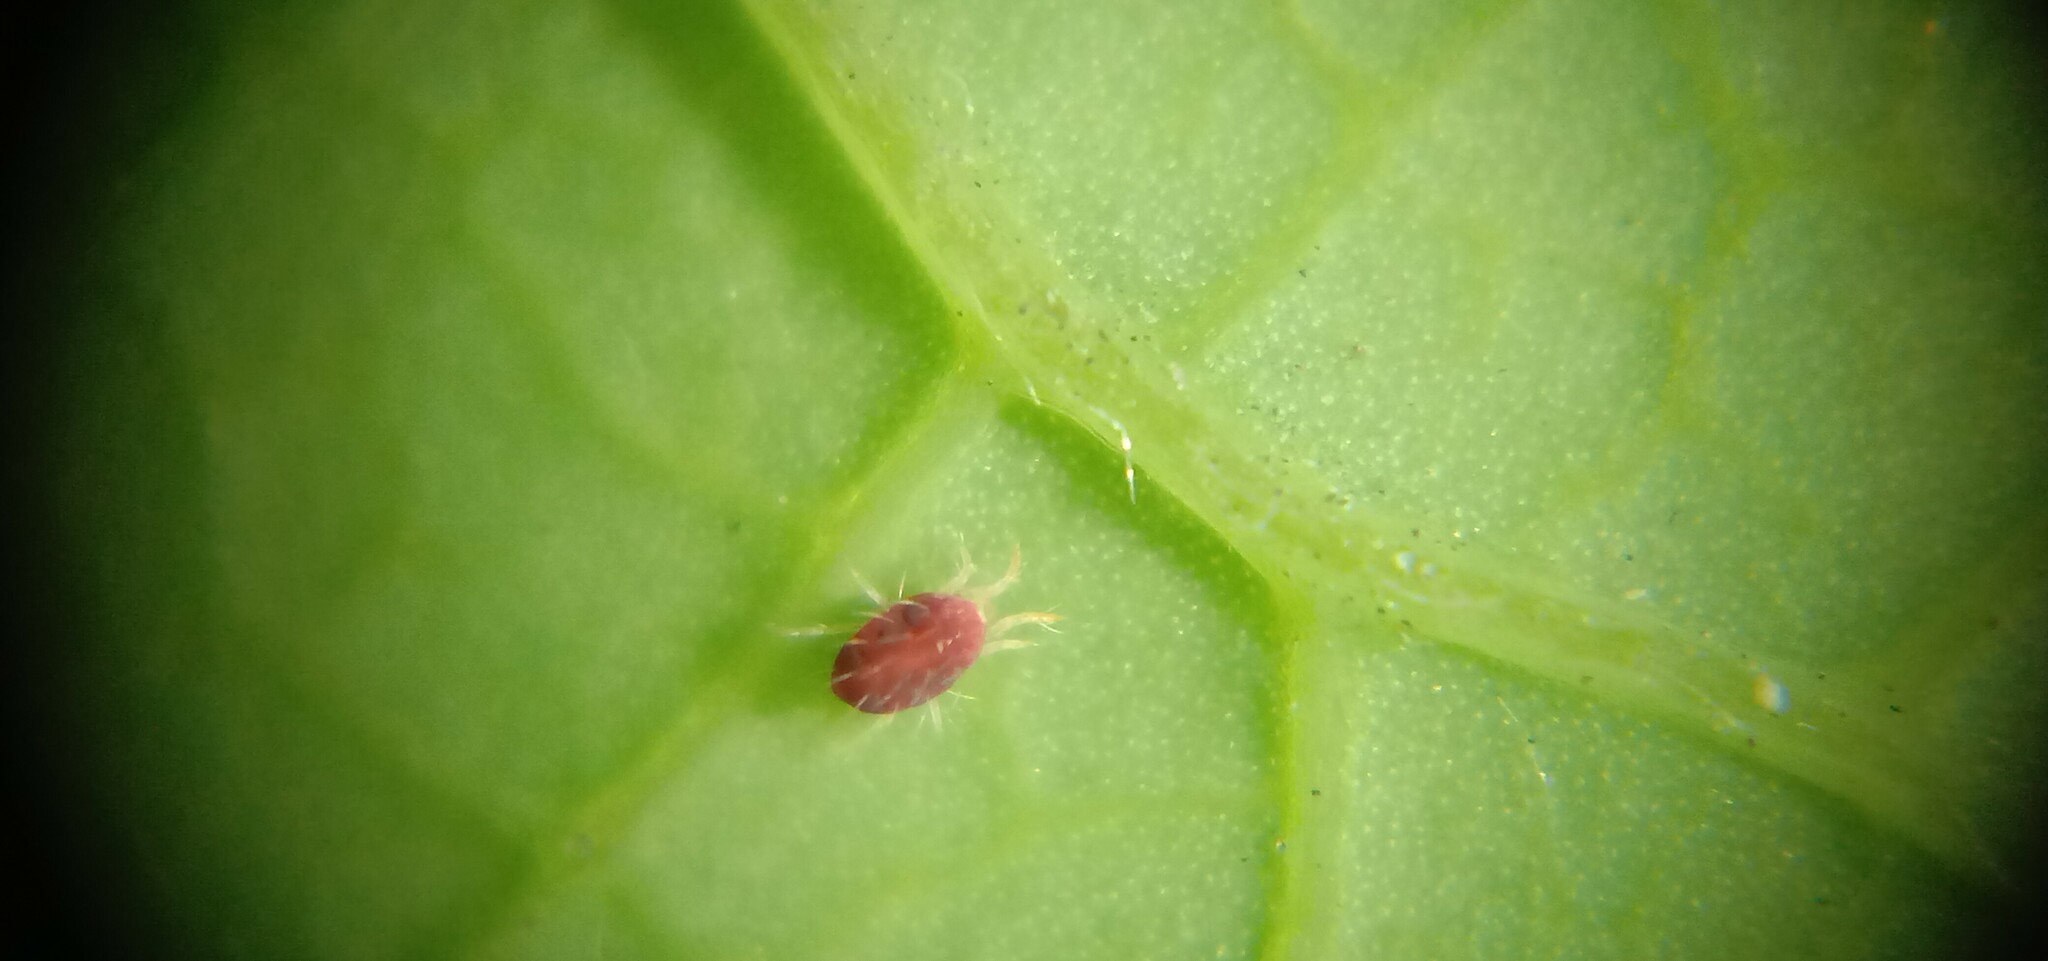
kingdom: Animalia
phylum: Arthropoda
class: Arachnida
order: Trombidiformes
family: Tetranychidae
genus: Tetranychus
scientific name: Tetranychus urticae
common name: Carmine spider mite
